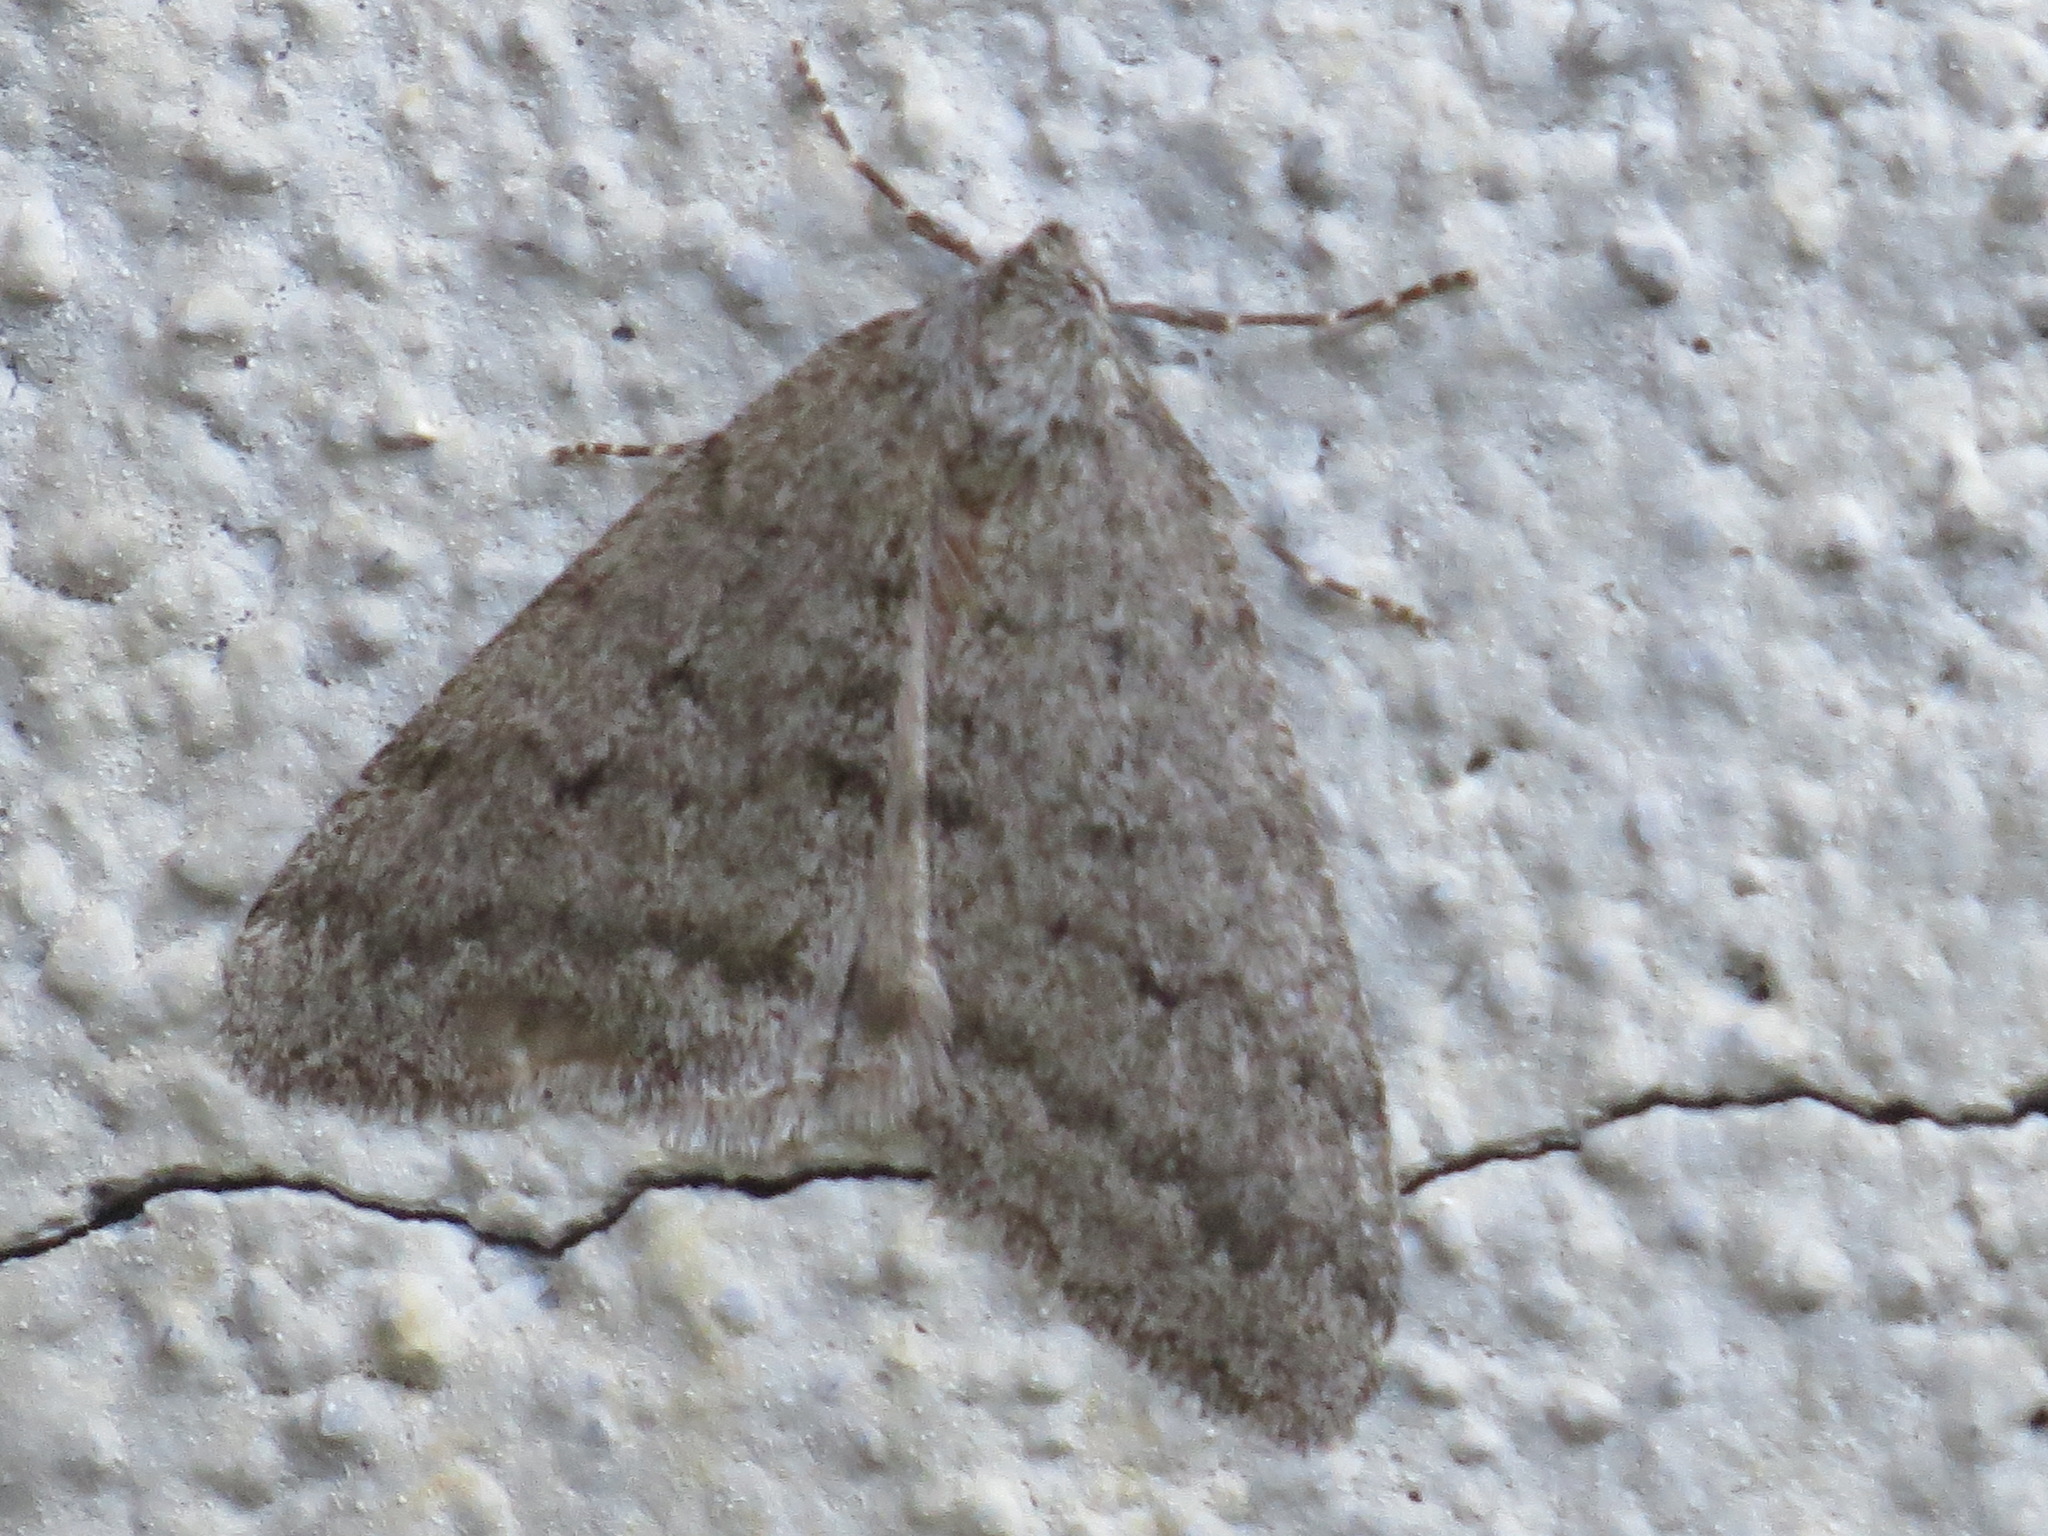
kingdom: Animalia
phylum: Arthropoda
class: Insecta
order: Lepidoptera
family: Geometridae
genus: Phigalia
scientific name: Phigalia plumogeraria
